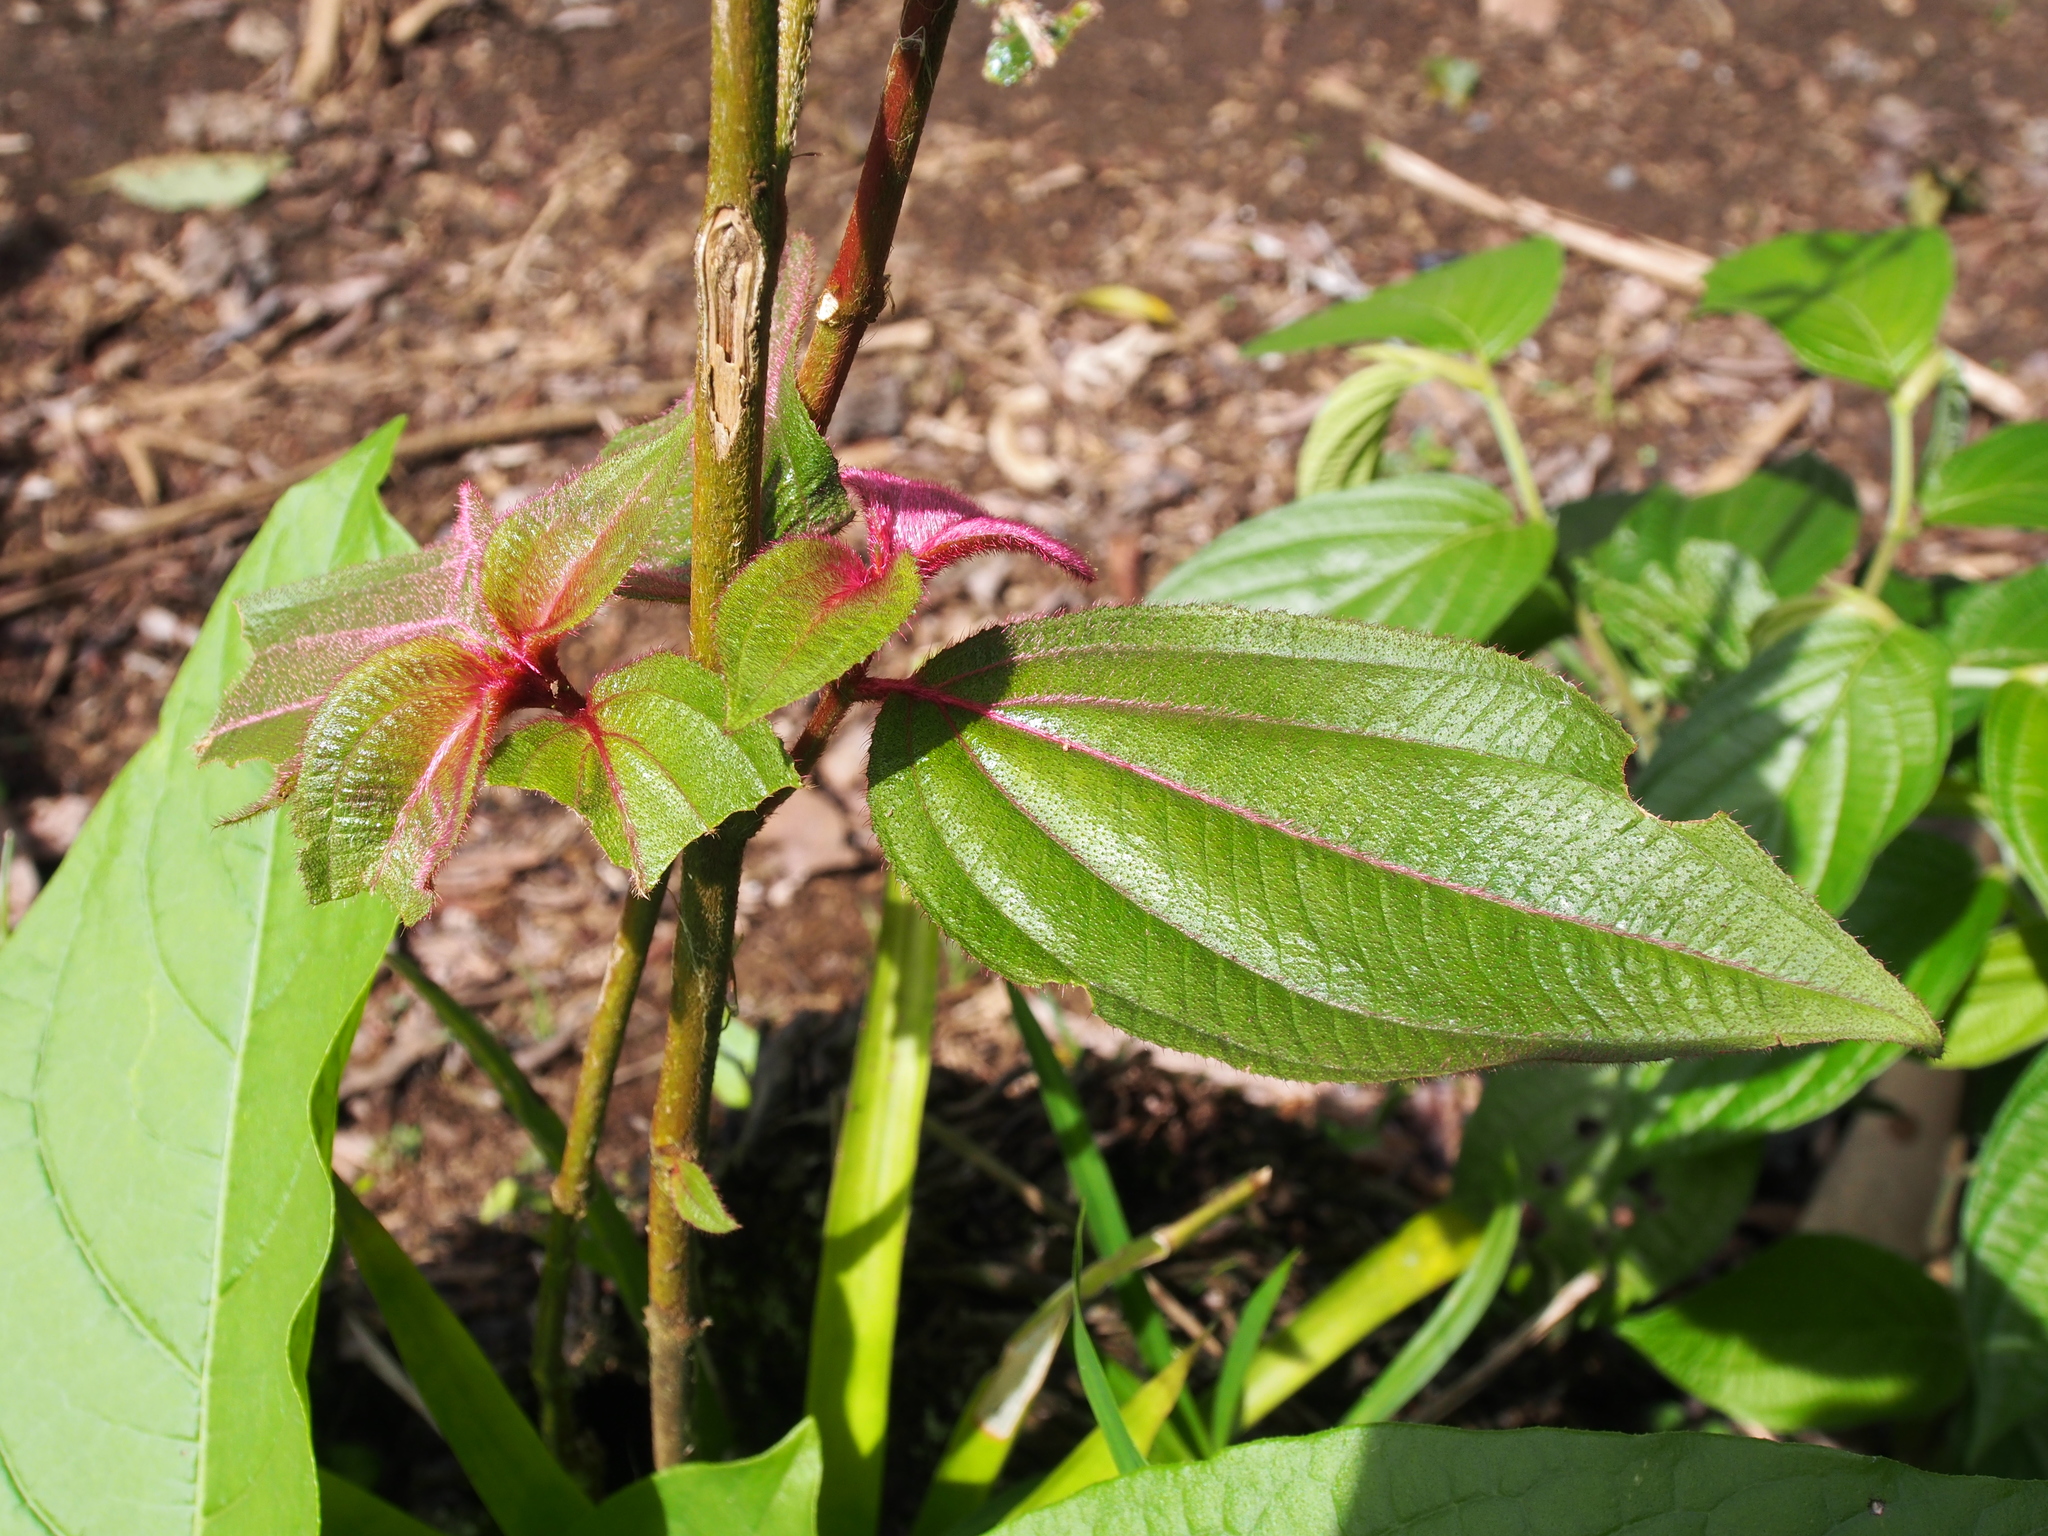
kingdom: Plantae
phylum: Tracheophyta
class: Magnoliopsida
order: Myrtales
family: Melastomataceae
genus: Miconia
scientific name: Miconia nervosa
